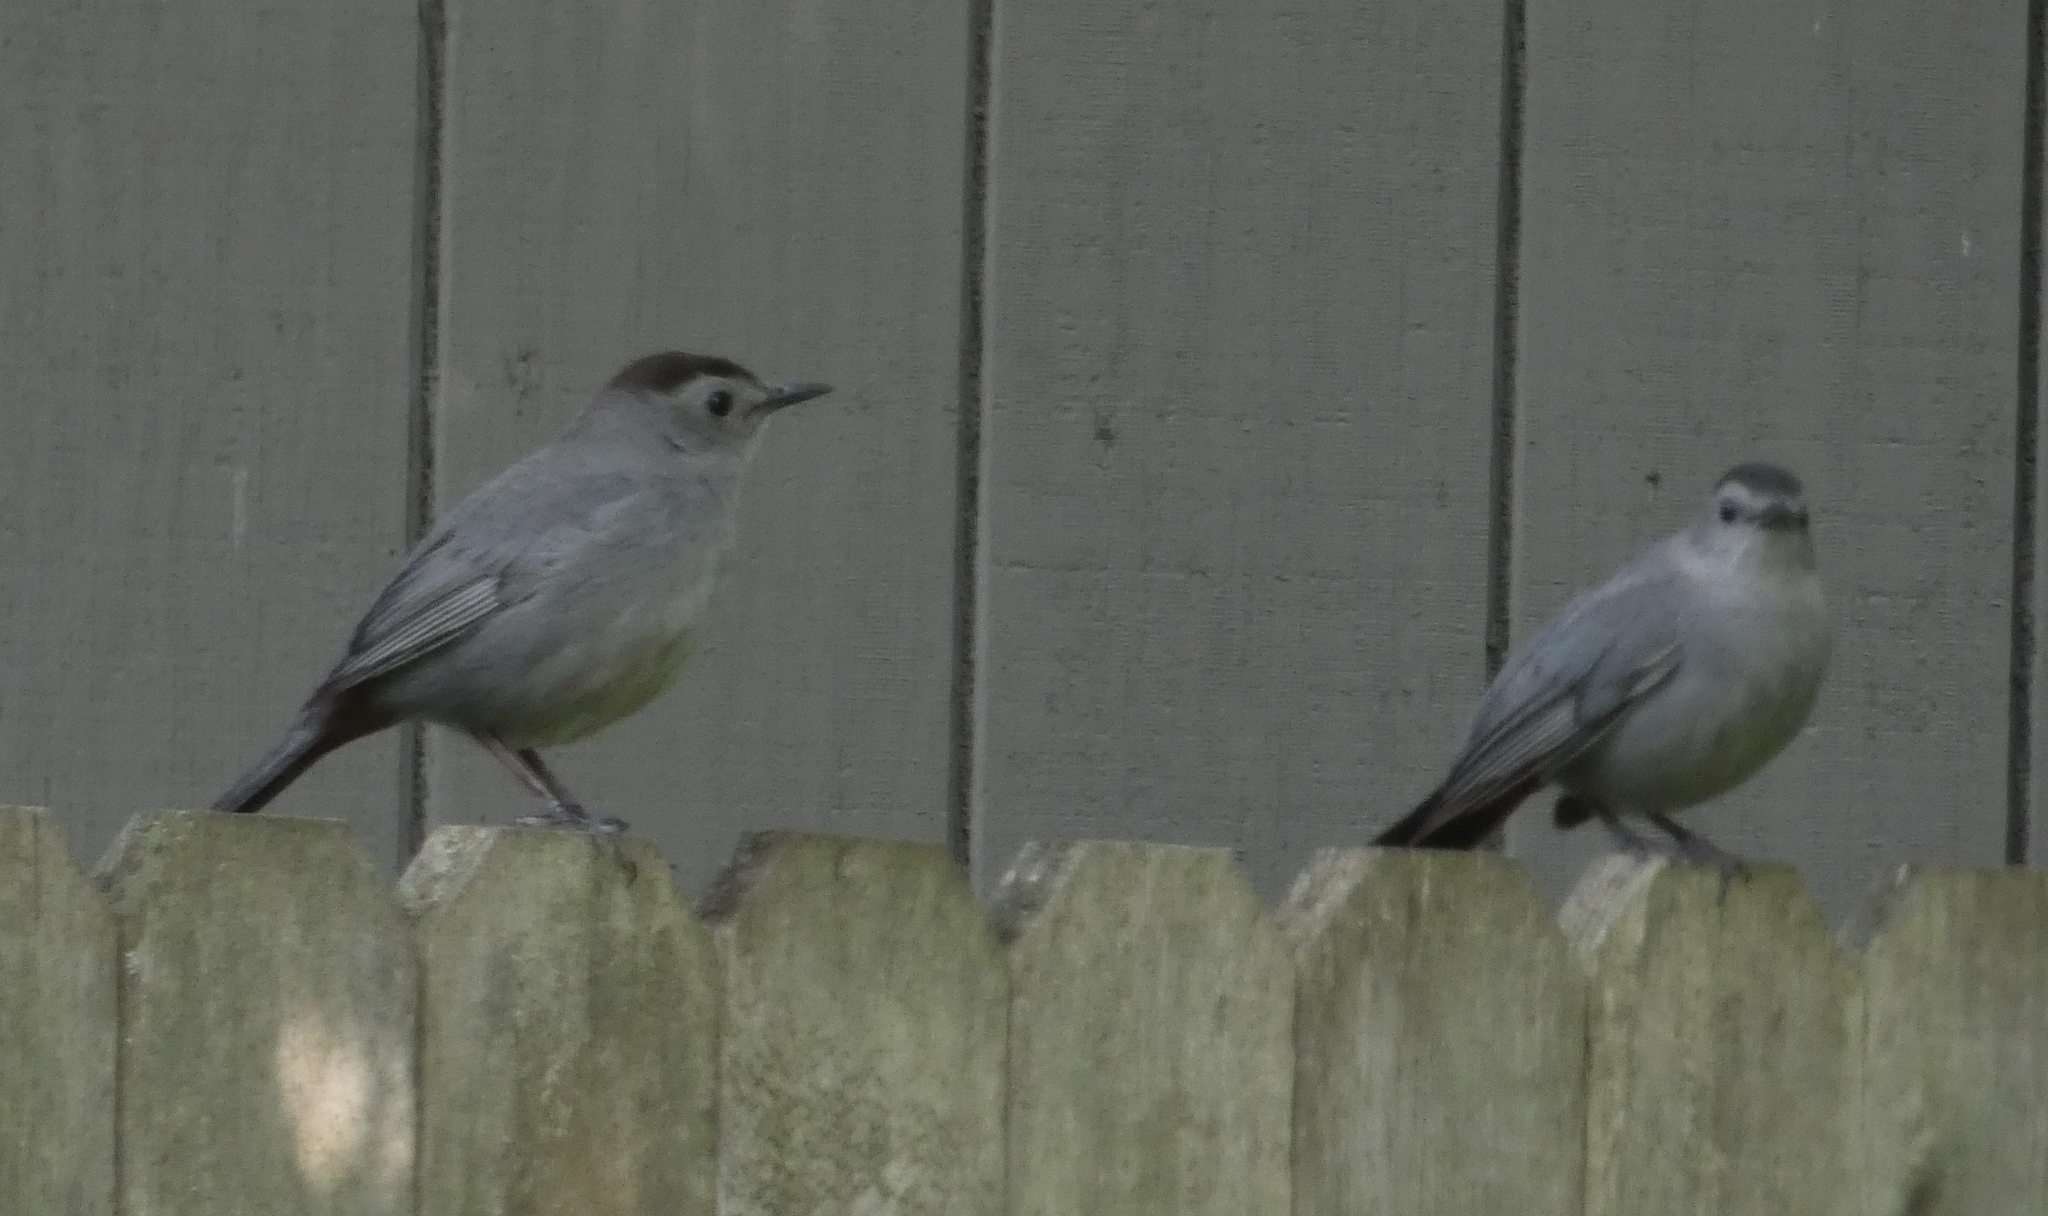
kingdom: Animalia
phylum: Chordata
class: Aves
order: Passeriformes
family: Mimidae
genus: Dumetella
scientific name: Dumetella carolinensis
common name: Gray catbird
